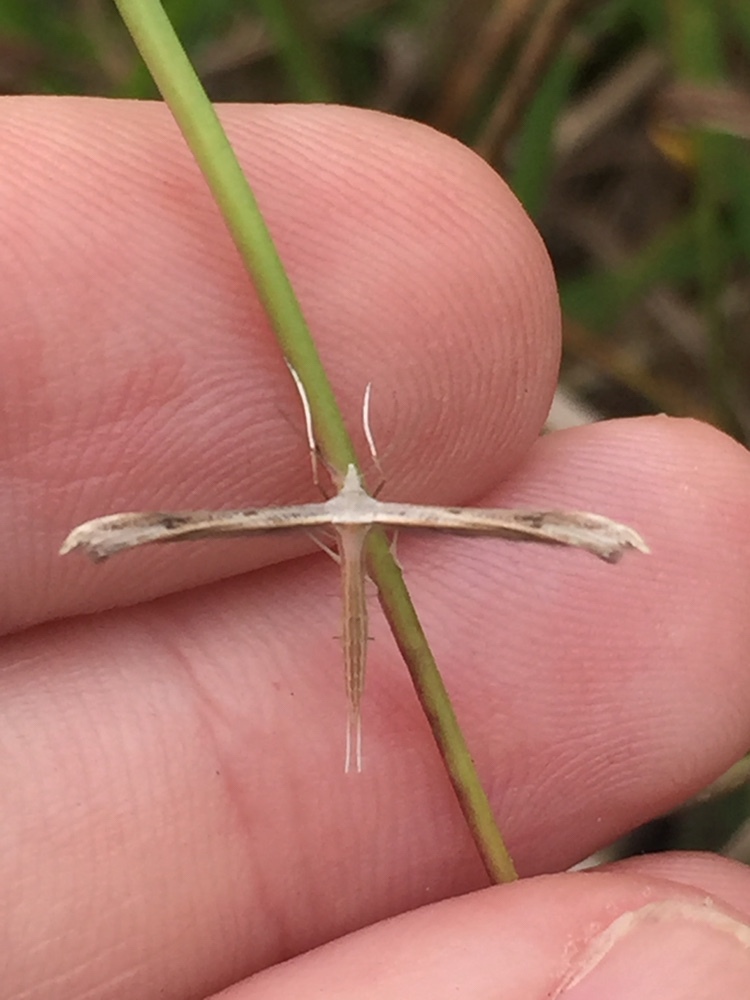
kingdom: Animalia
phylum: Arthropoda
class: Insecta
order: Lepidoptera
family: Pterophoridae
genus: Stenoptilia
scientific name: Stenoptilia zophodactylus
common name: Dowdy plume
